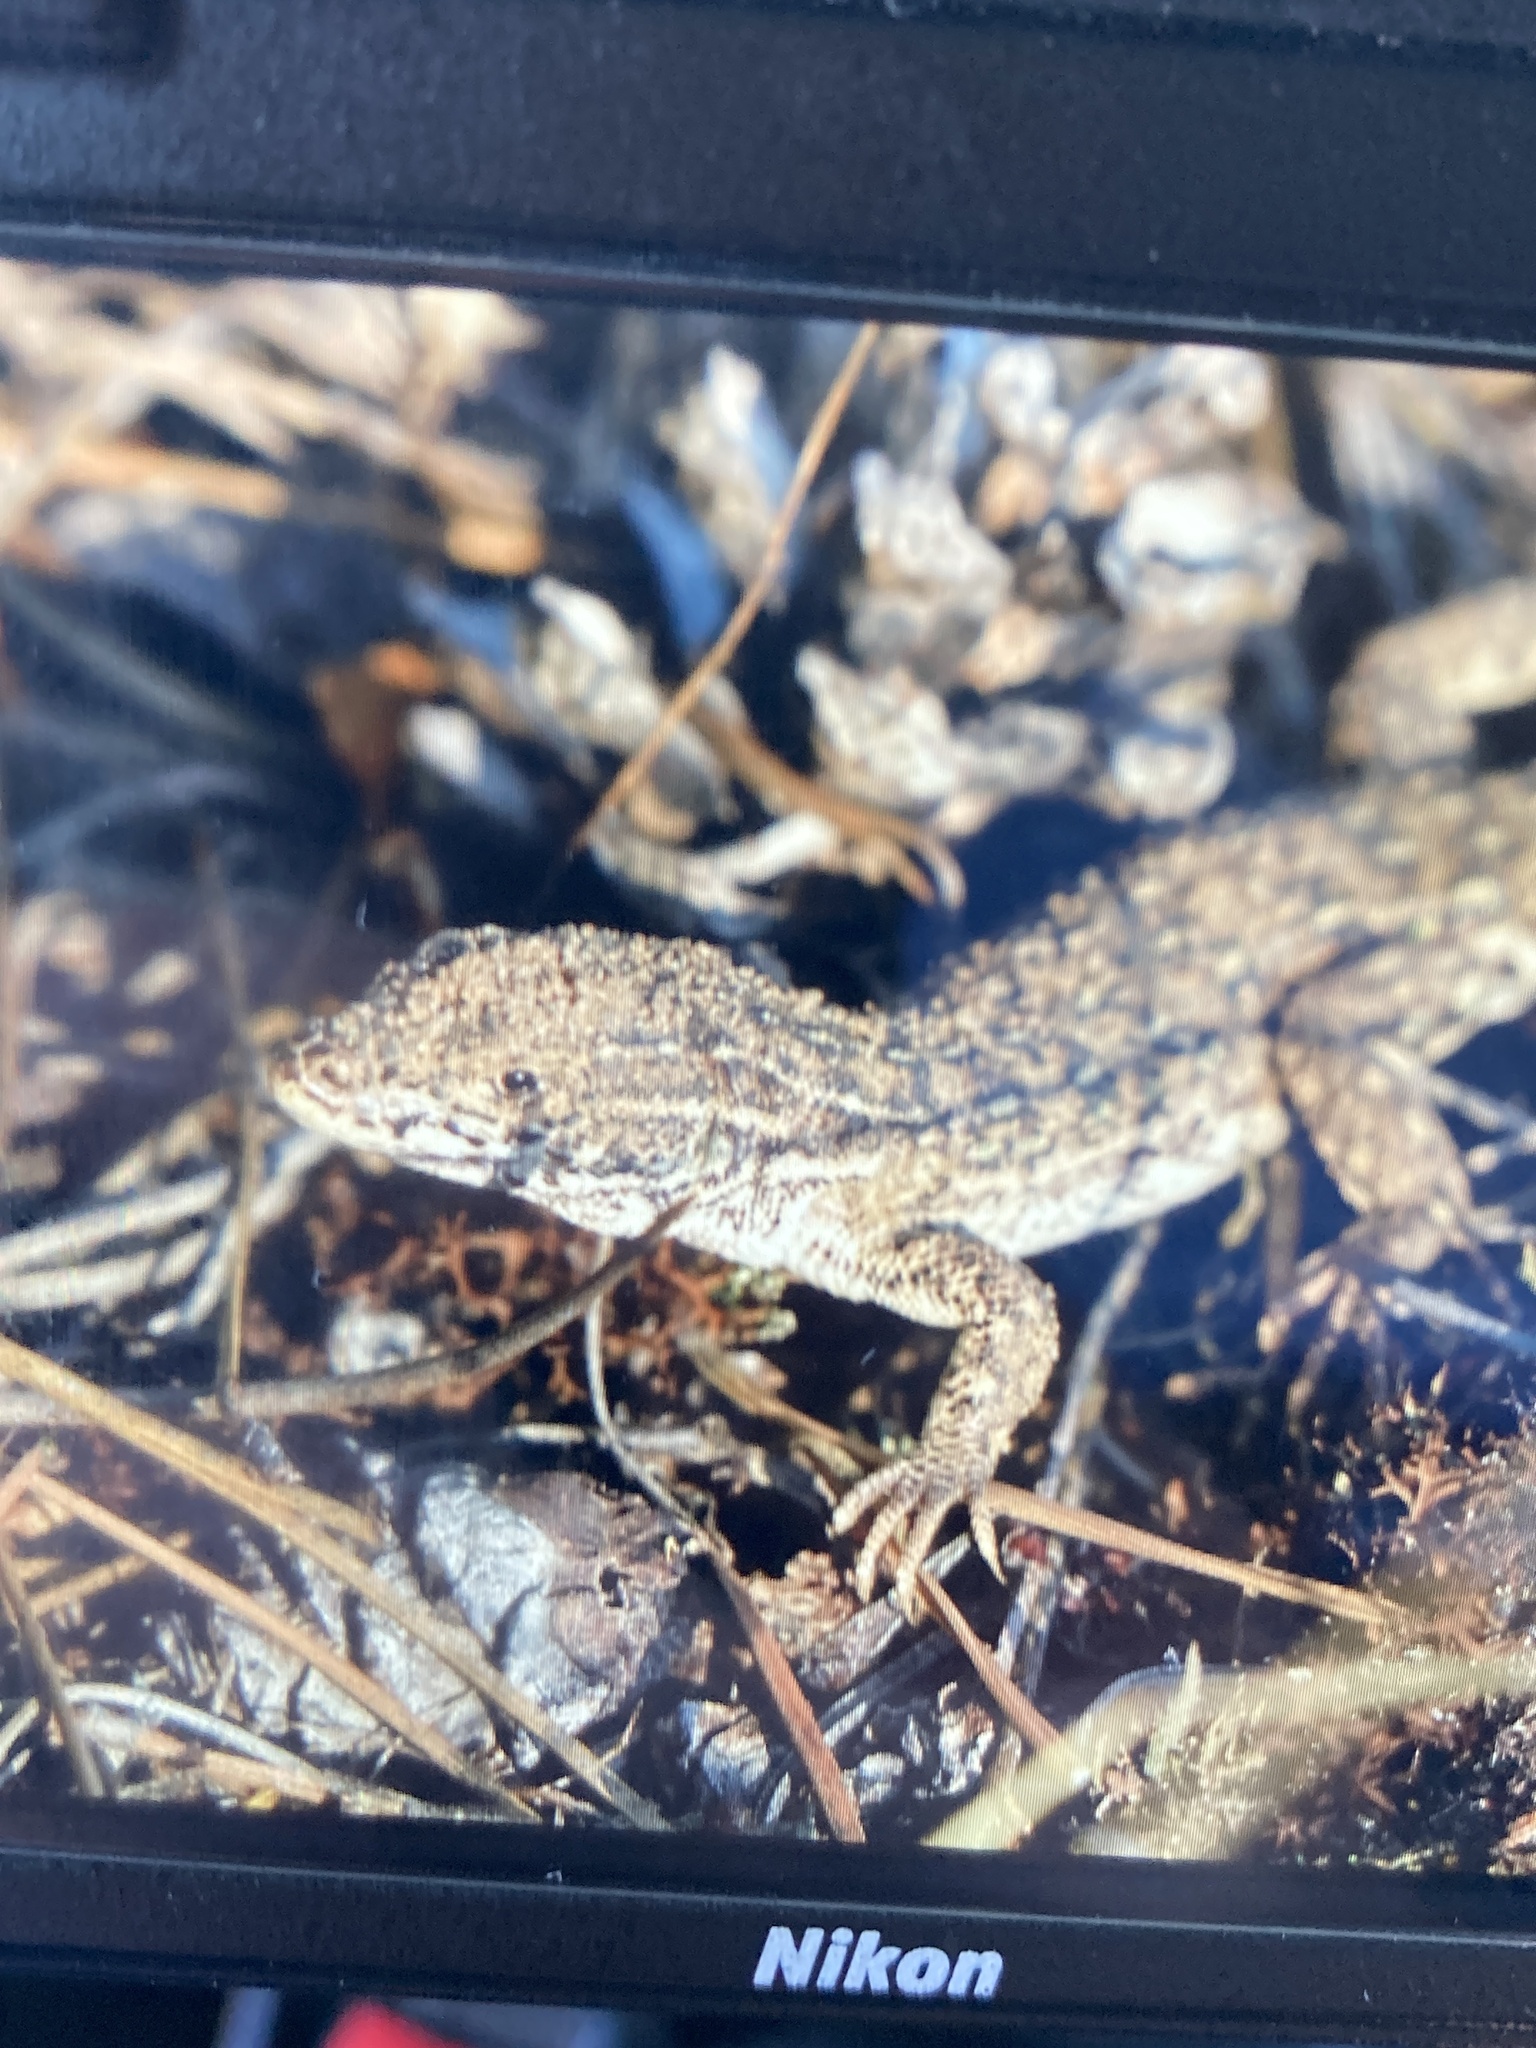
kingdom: Animalia
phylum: Chordata
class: Squamata
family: Lacertidae
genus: Eremias
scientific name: Eremias arguta
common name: Racerunner
